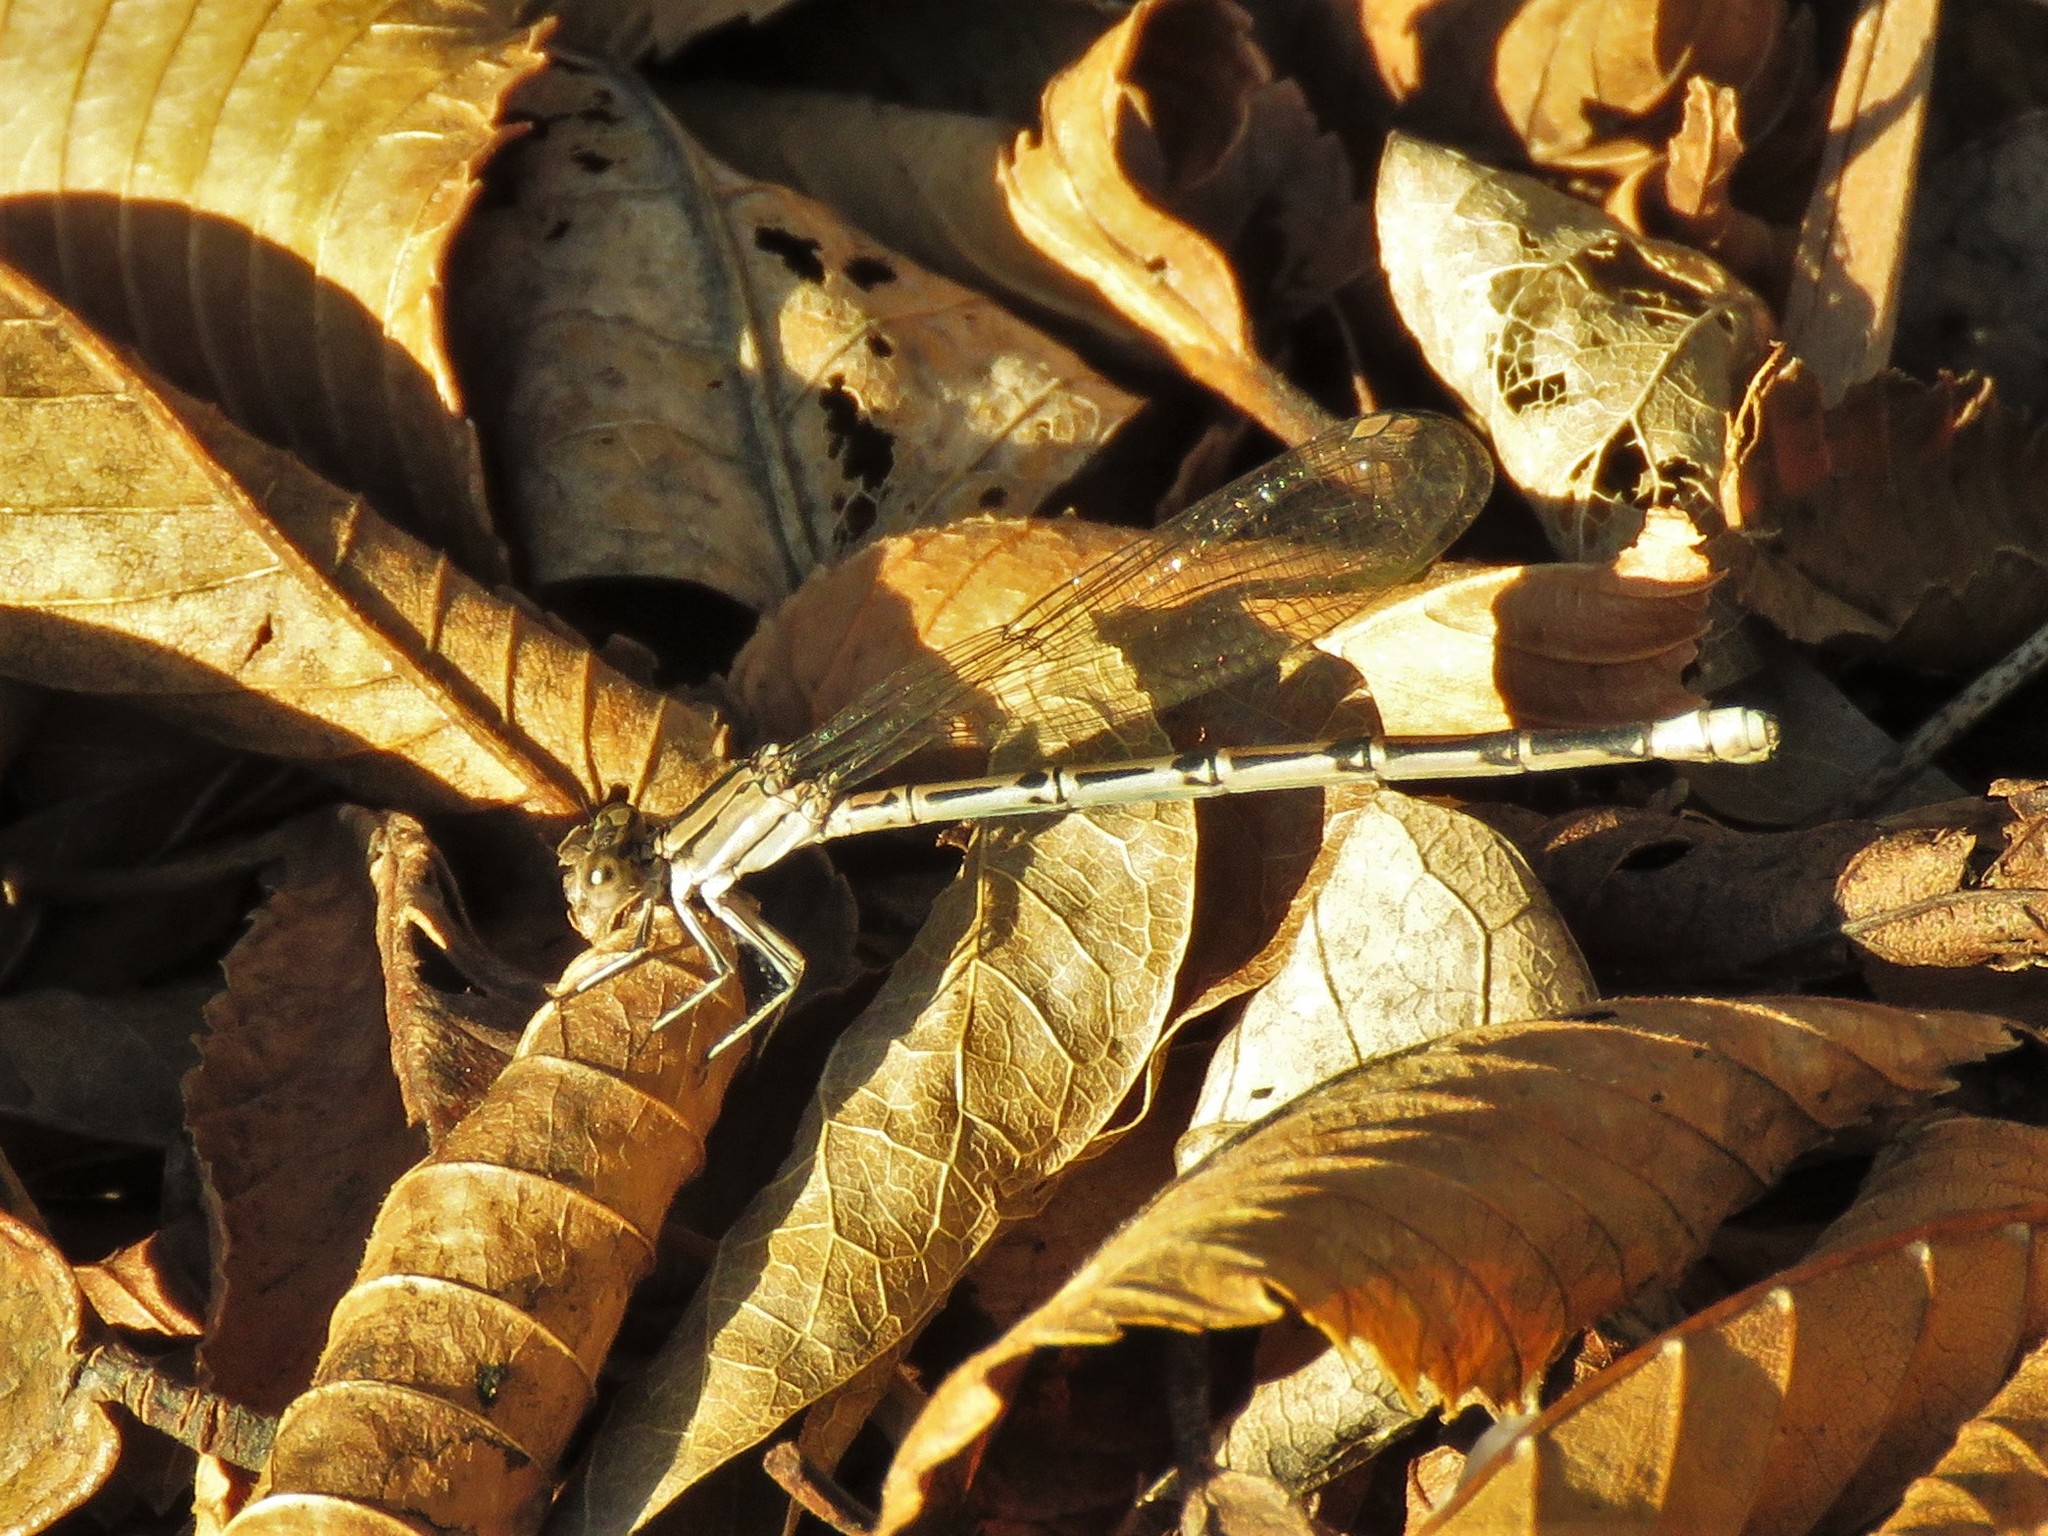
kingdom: Animalia
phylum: Arthropoda
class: Insecta
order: Odonata
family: Coenagrionidae
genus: Argia
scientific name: Argia funebris
